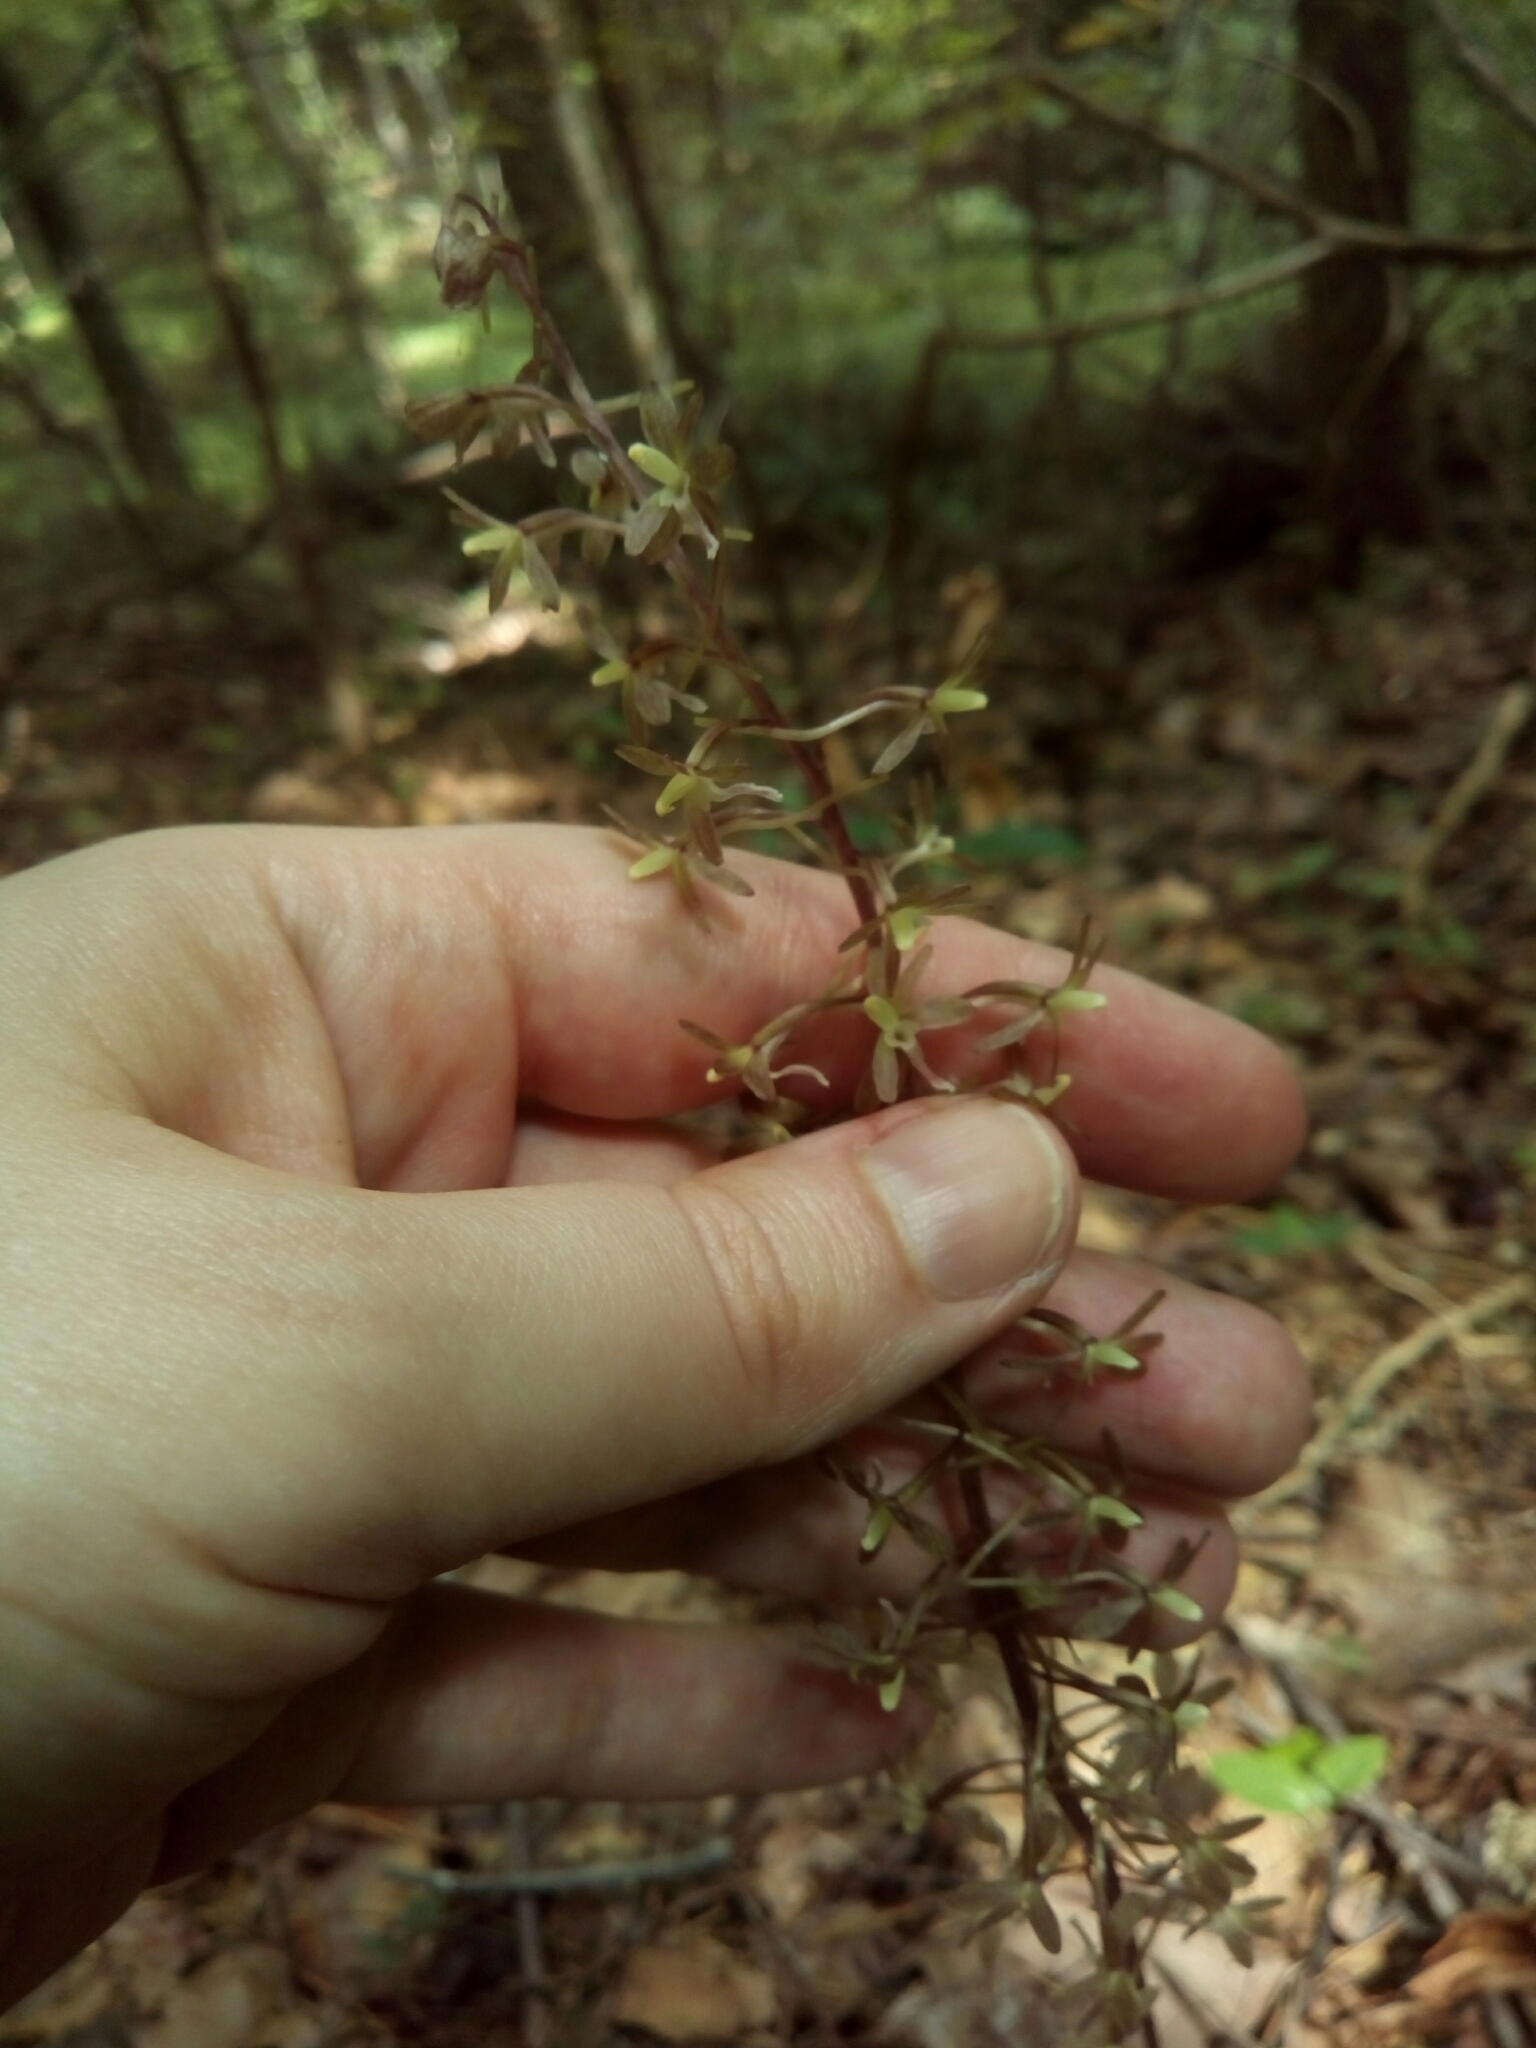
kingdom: Plantae
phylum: Tracheophyta
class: Liliopsida
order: Asparagales
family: Orchidaceae
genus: Tipularia
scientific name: Tipularia discolor
